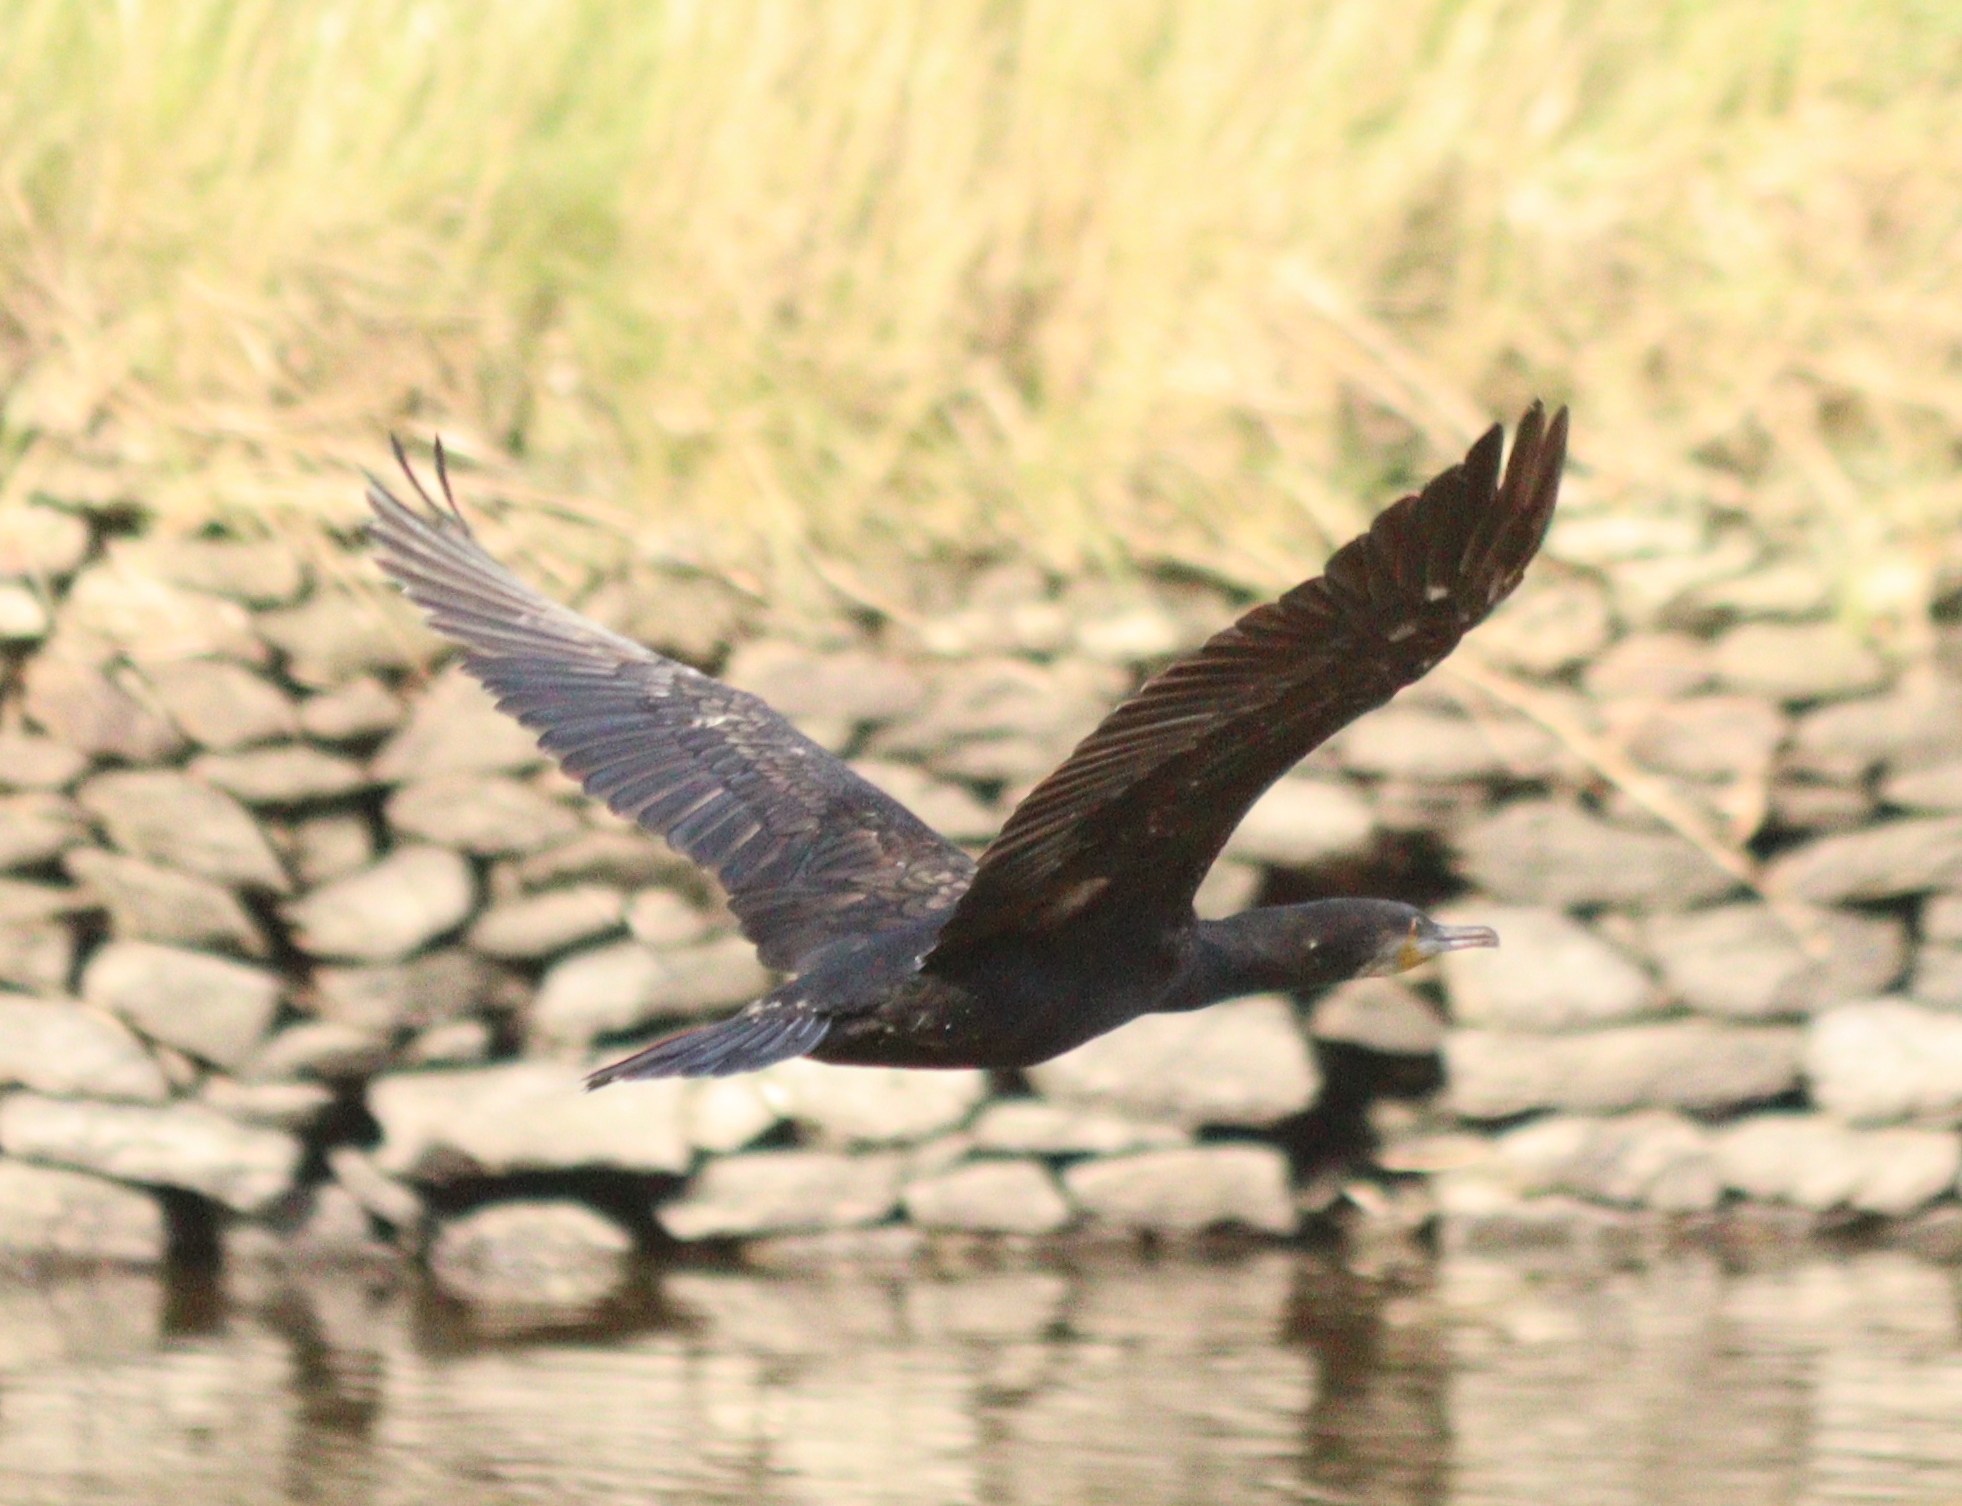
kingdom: Animalia
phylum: Chordata
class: Aves
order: Suliformes
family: Phalacrocoracidae
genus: Phalacrocorax
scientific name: Phalacrocorax carbo
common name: Great cormorant
